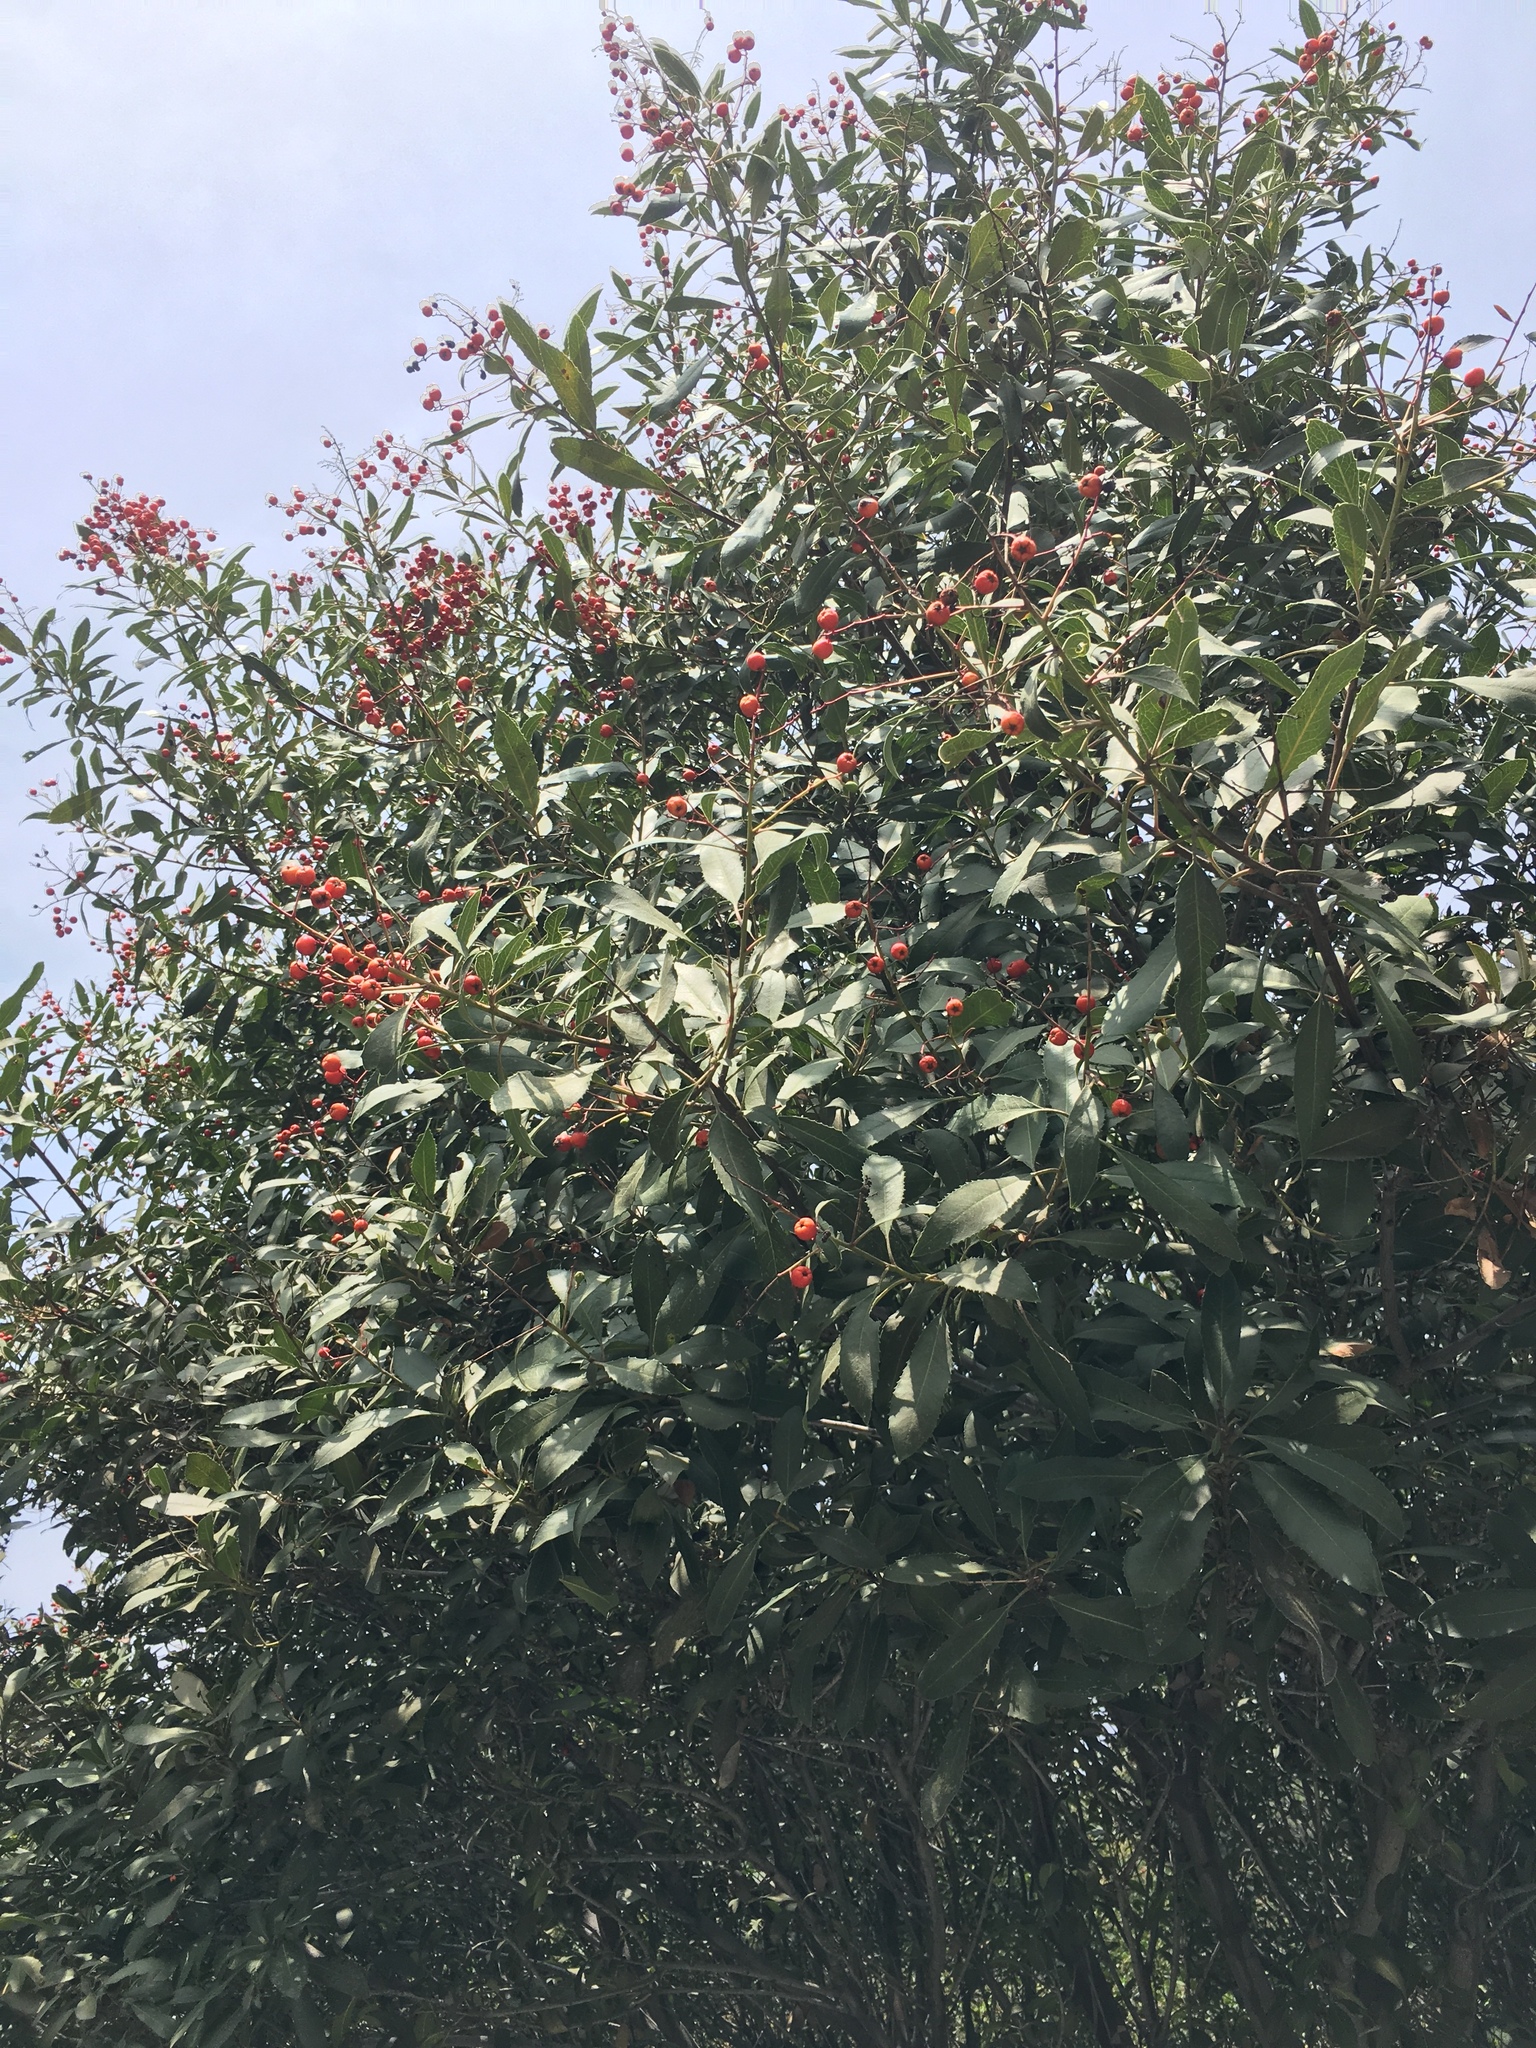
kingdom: Plantae
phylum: Tracheophyta
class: Magnoliopsida
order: Rosales
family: Rosaceae
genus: Heteromeles
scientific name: Heteromeles arbutifolia
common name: California-holly
